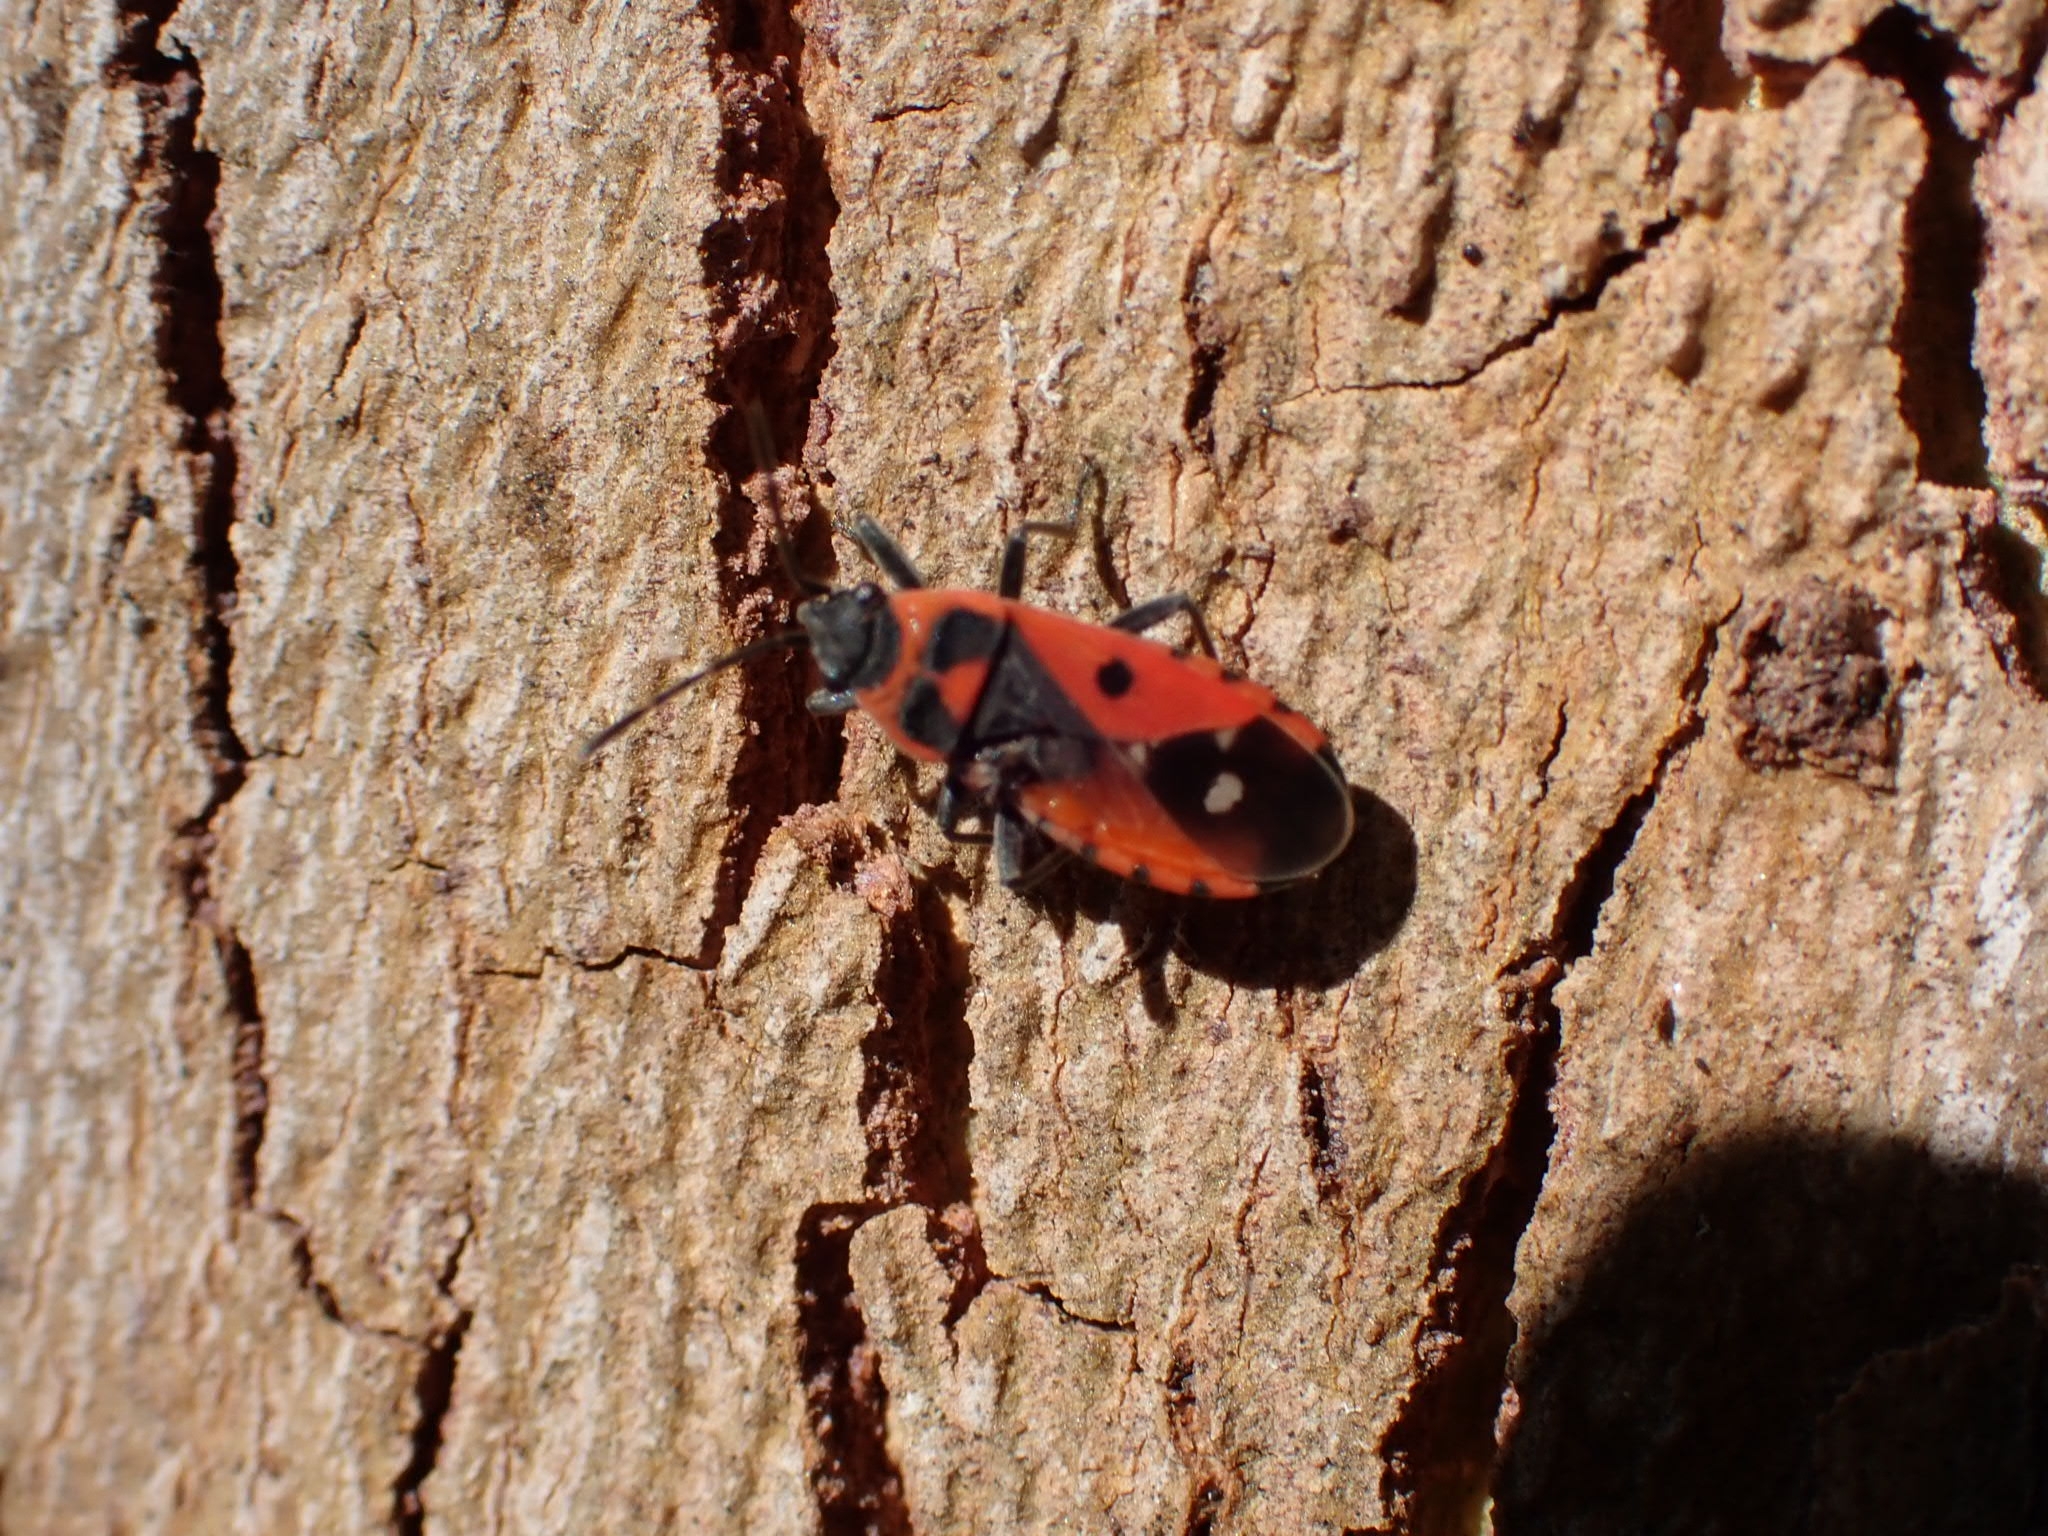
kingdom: Animalia
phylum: Arthropoda
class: Insecta
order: Hemiptera
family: Lygaeidae
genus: Melanocoryphus
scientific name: Melanocoryphus albomaculatus
